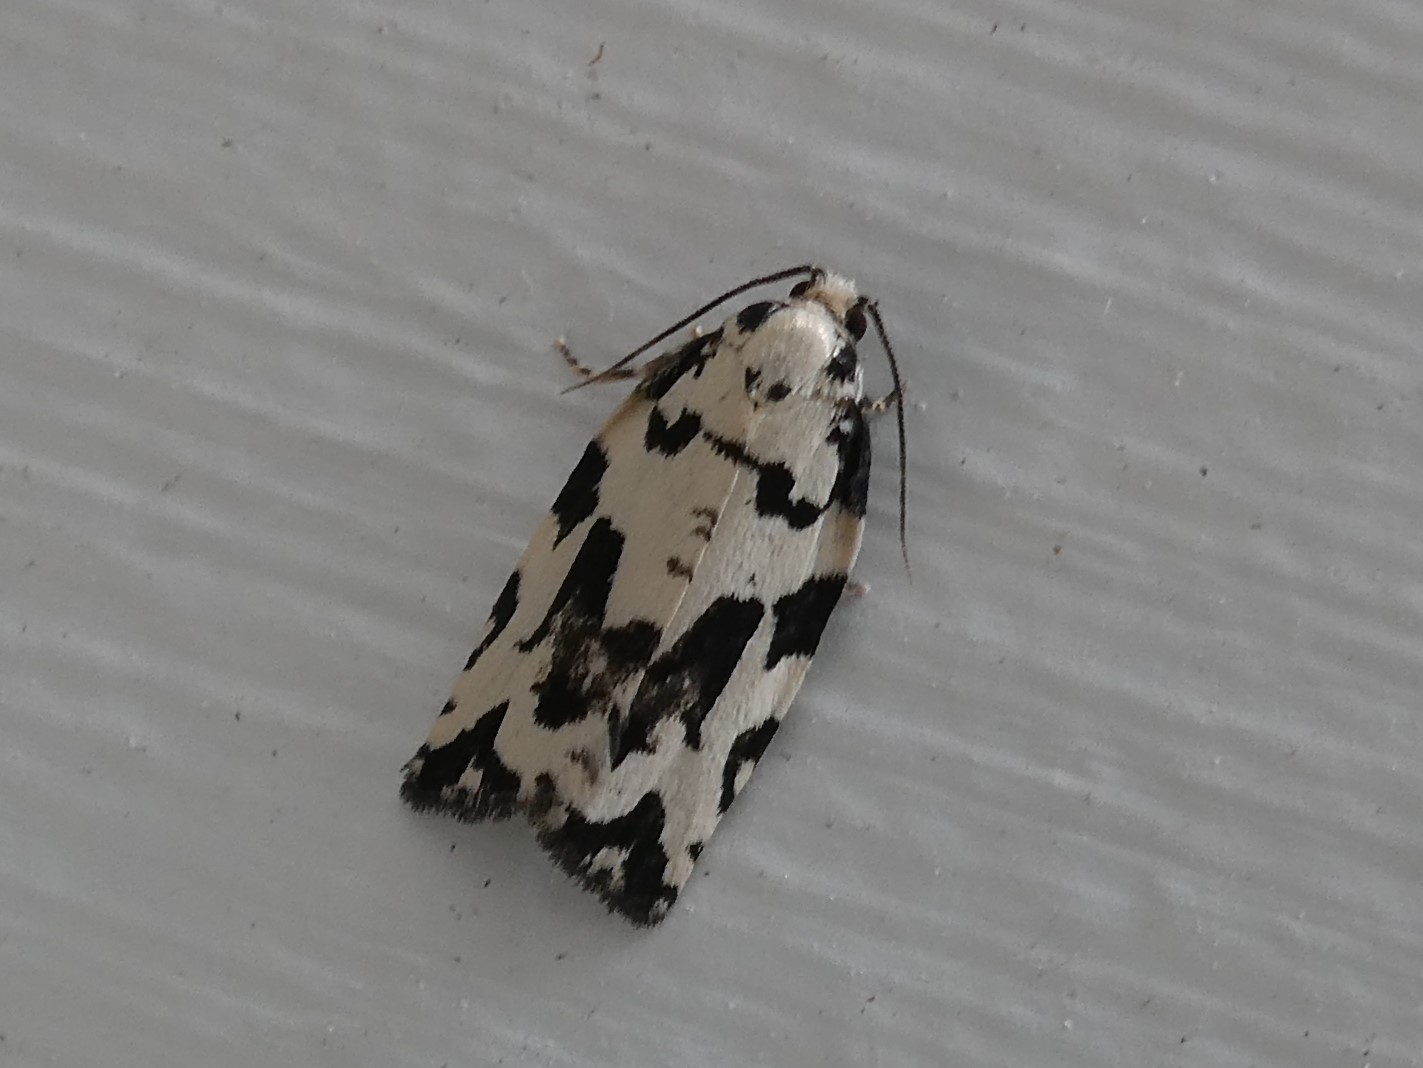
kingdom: Animalia
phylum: Arthropoda
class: Insecta
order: Lepidoptera
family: Tortricidae
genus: Archips
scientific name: Archips dissitana
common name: Boldly-marked archips moth
